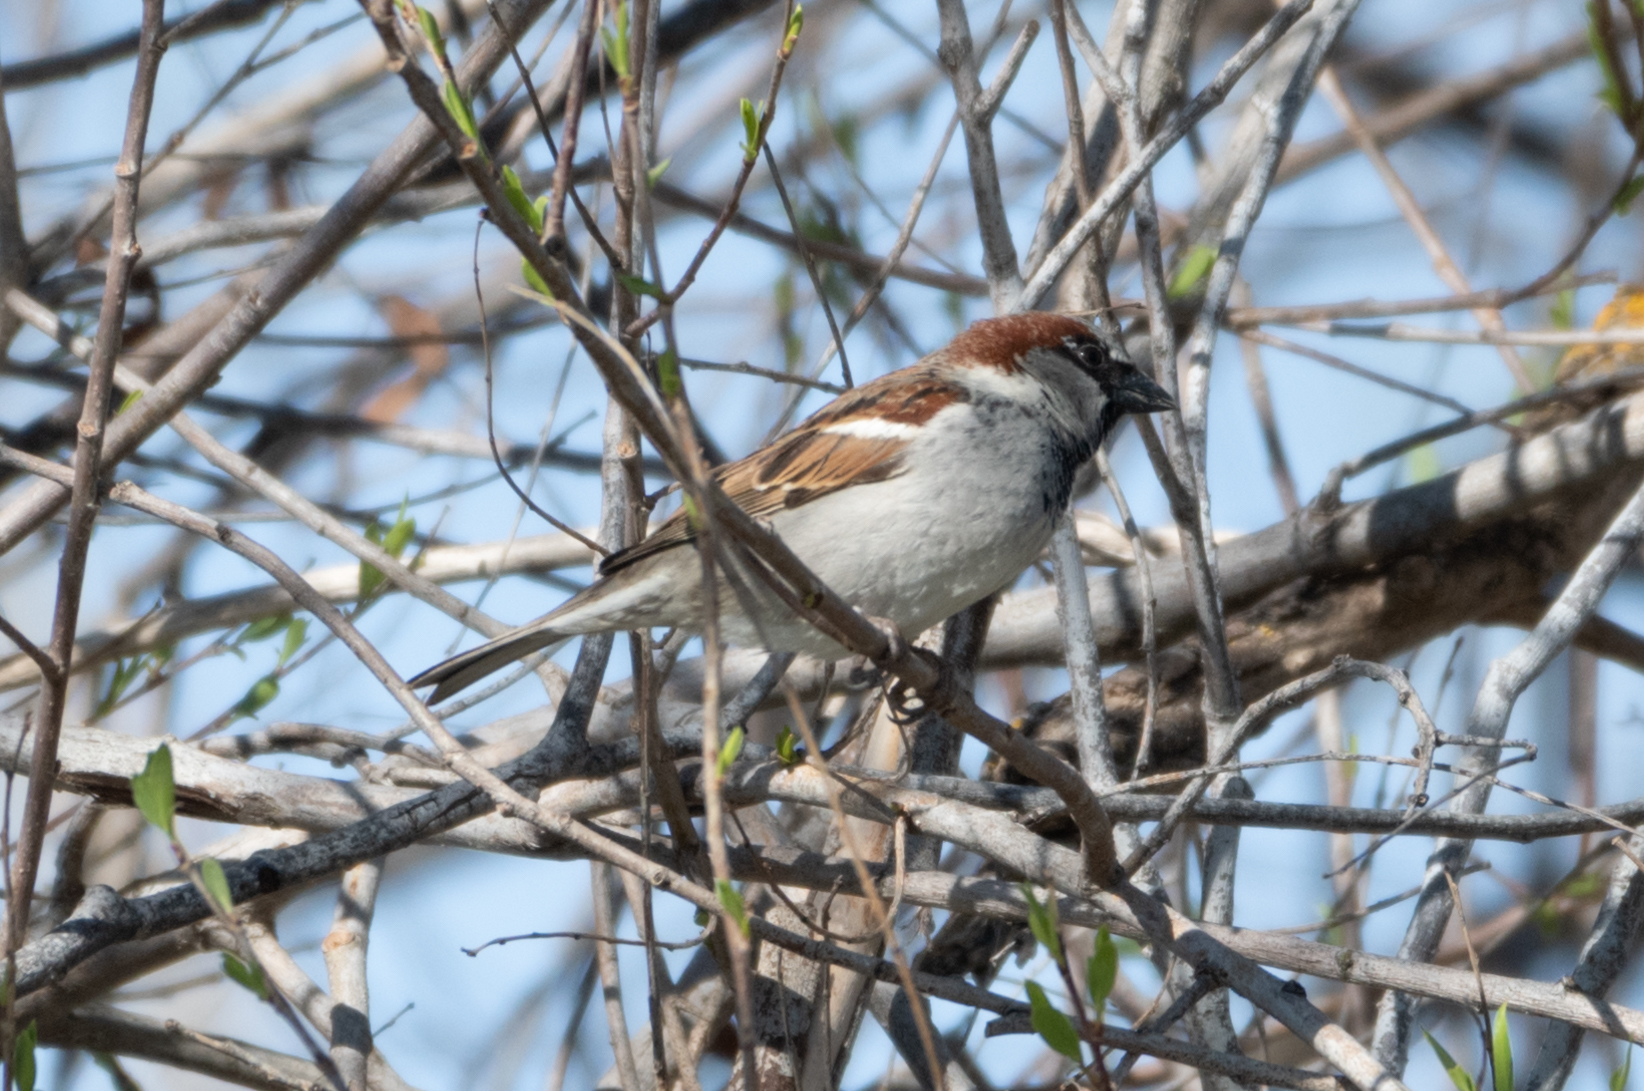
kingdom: Animalia
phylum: Chordata
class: Aves
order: Passeriformes
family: Passeridae
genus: Passer
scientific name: Passer domesticus
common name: House sparrow
